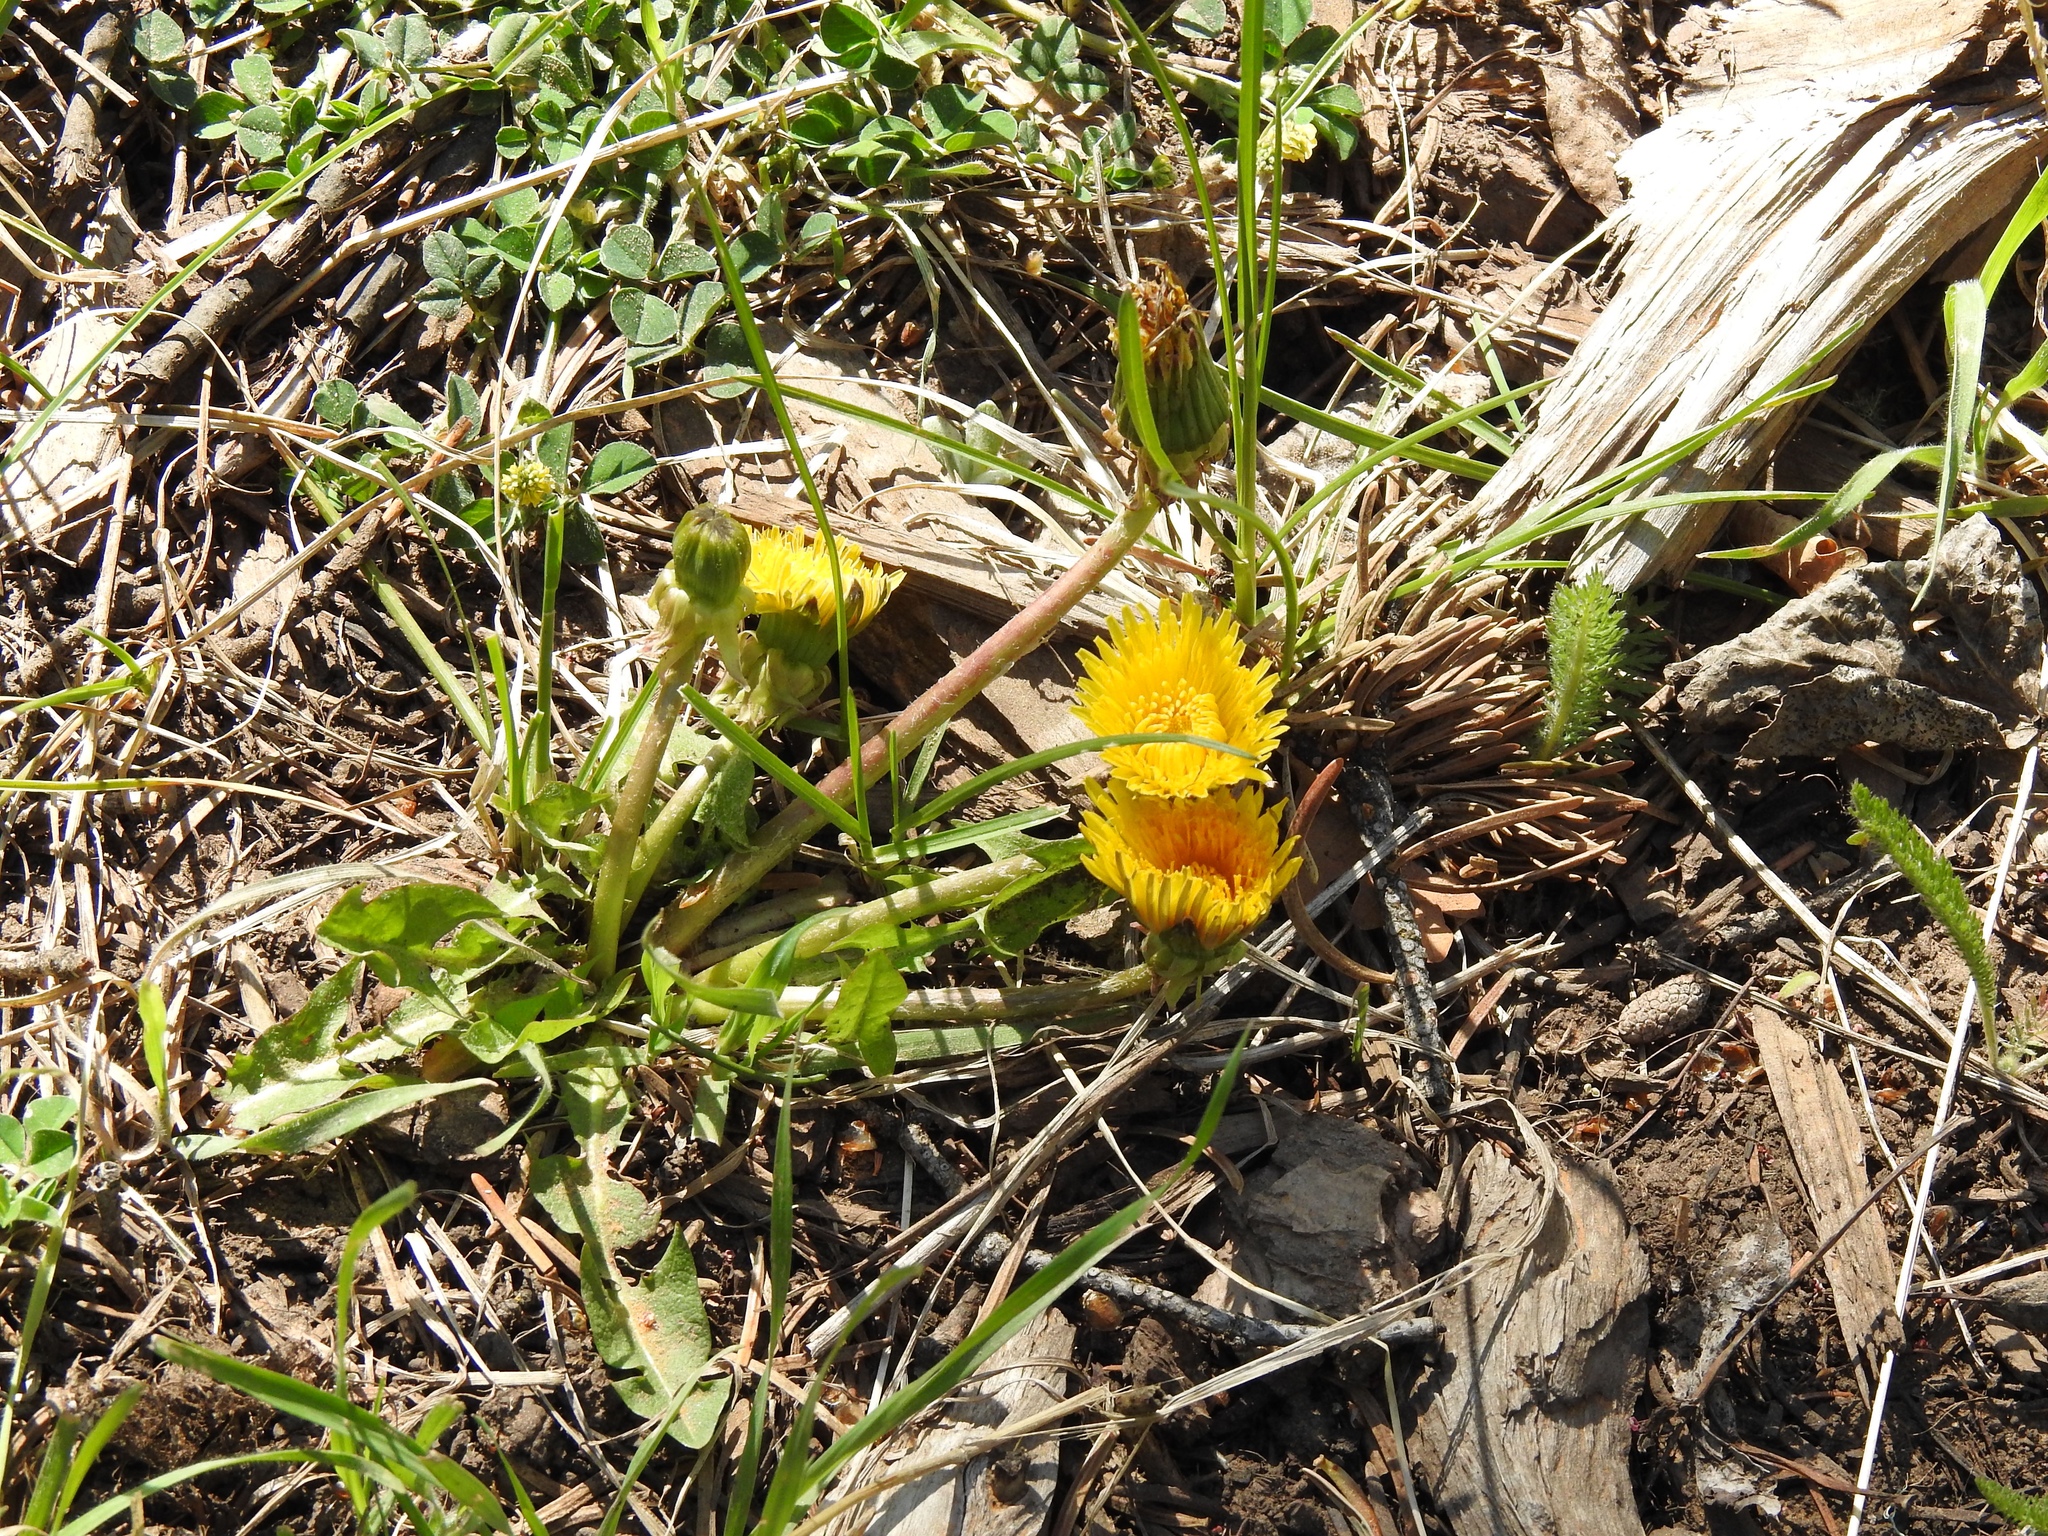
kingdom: Plantae
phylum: Tracheophyta
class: Magnoliopsida
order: Asterales
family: Asteraceae
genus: Taraxacum
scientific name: Taraxacum officinale
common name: Common dandelion
